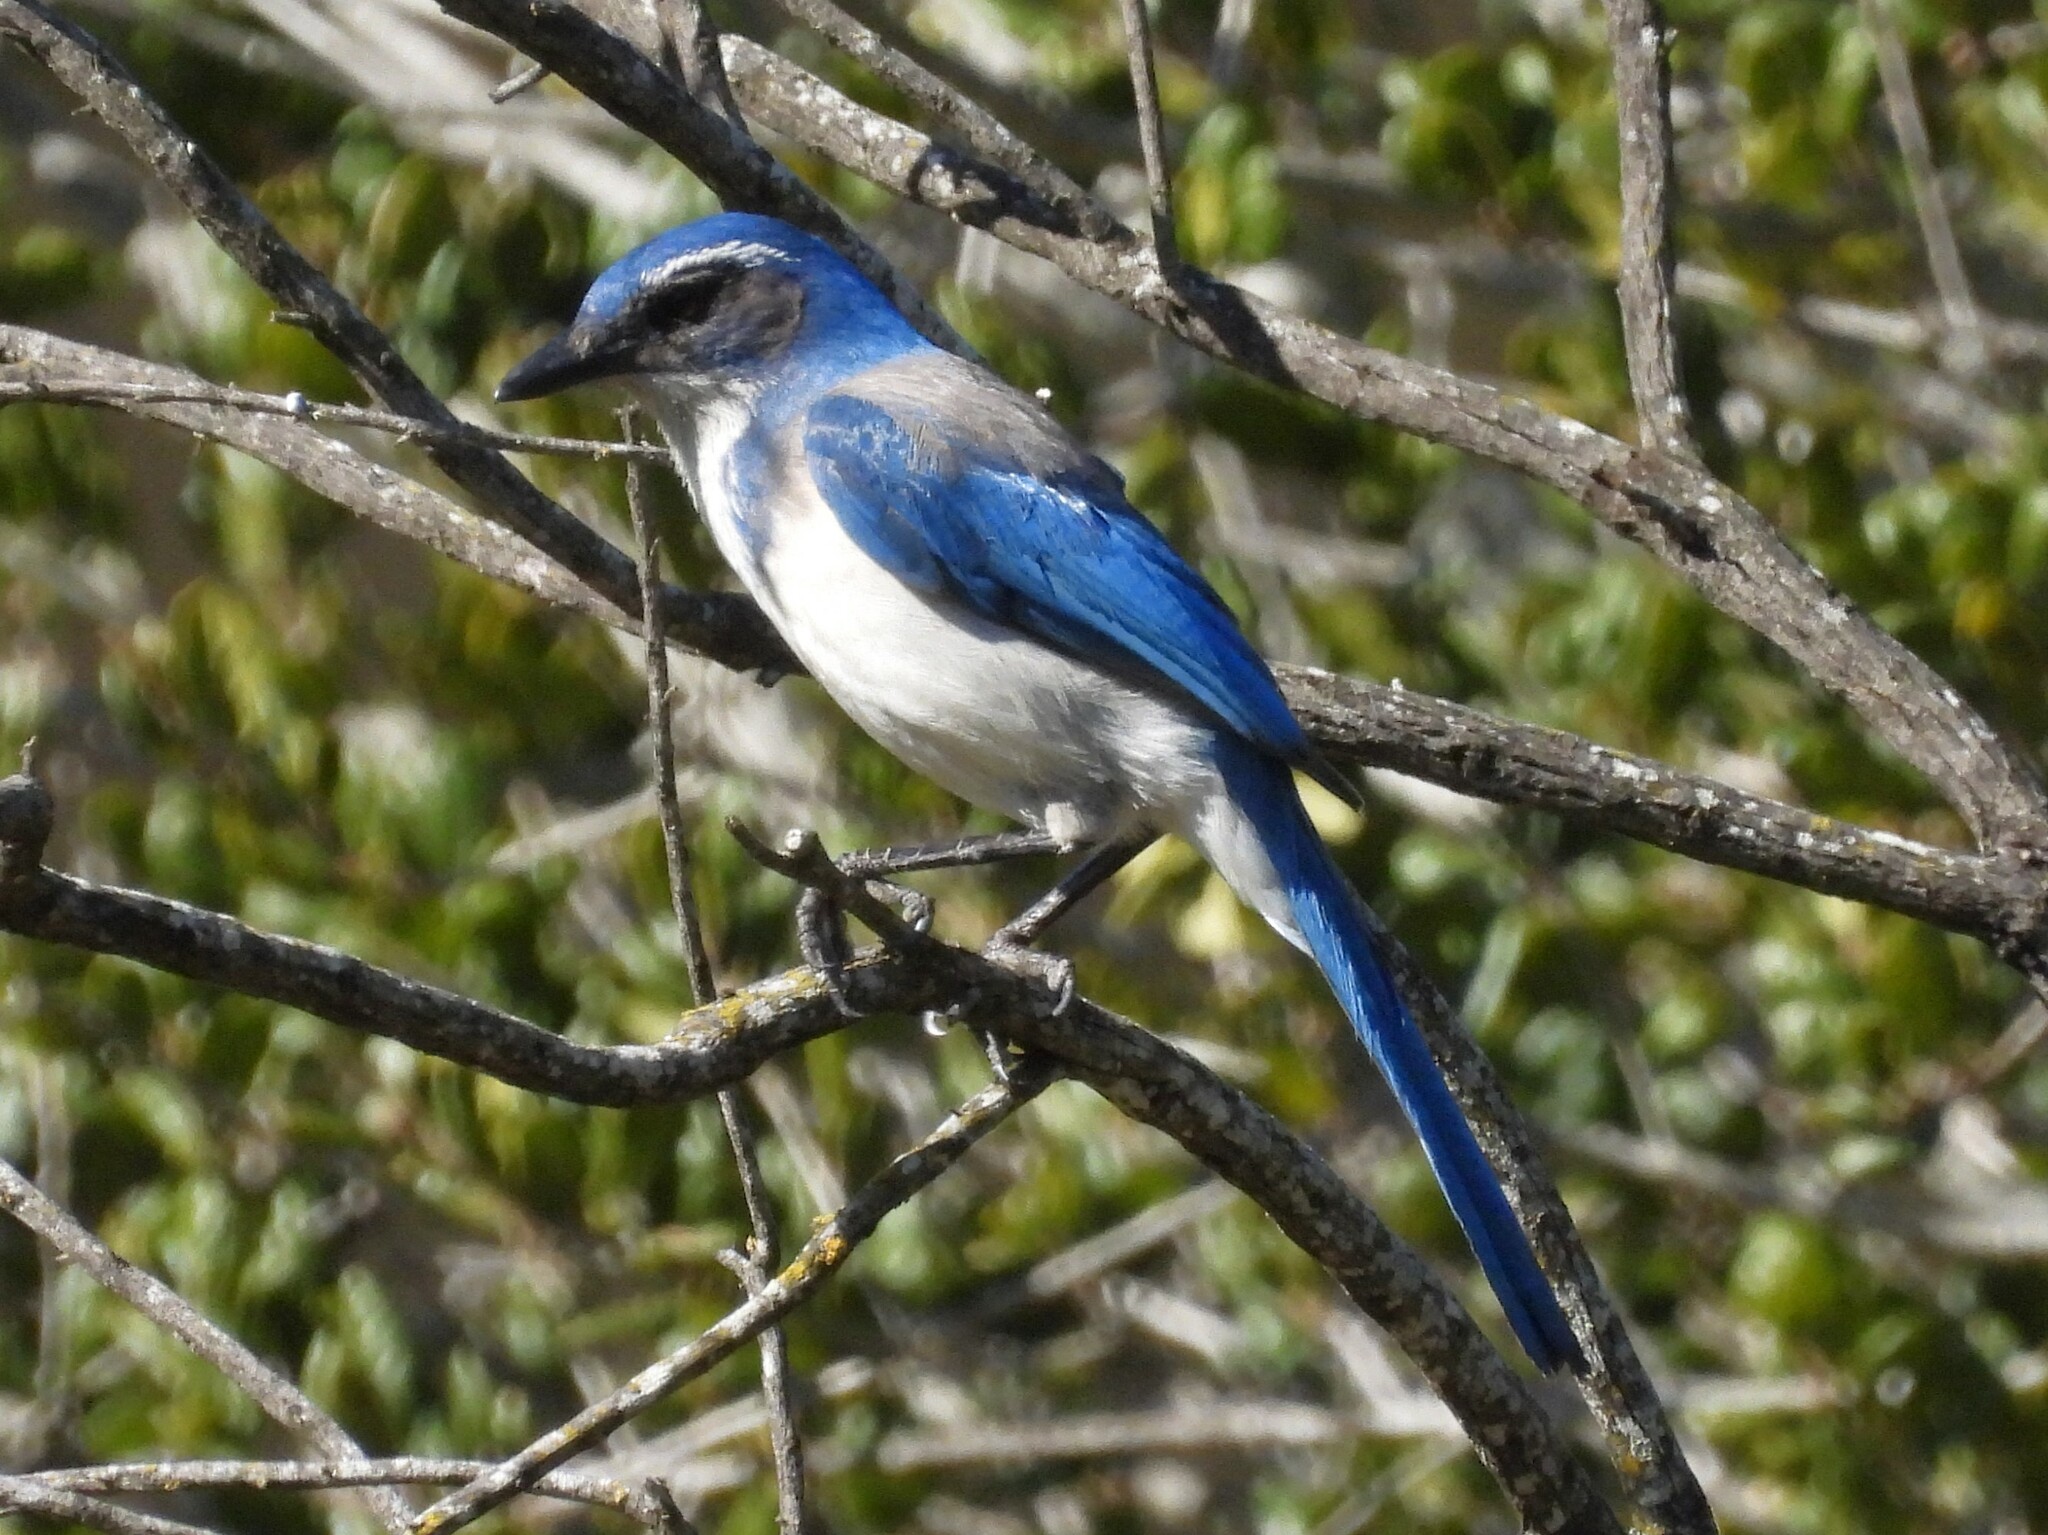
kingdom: Animalia
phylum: Chordata
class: Aves
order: Passeriformes
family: Corvidae
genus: Aphelocoma
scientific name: Aphelocoma californica
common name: California scrub-jay
